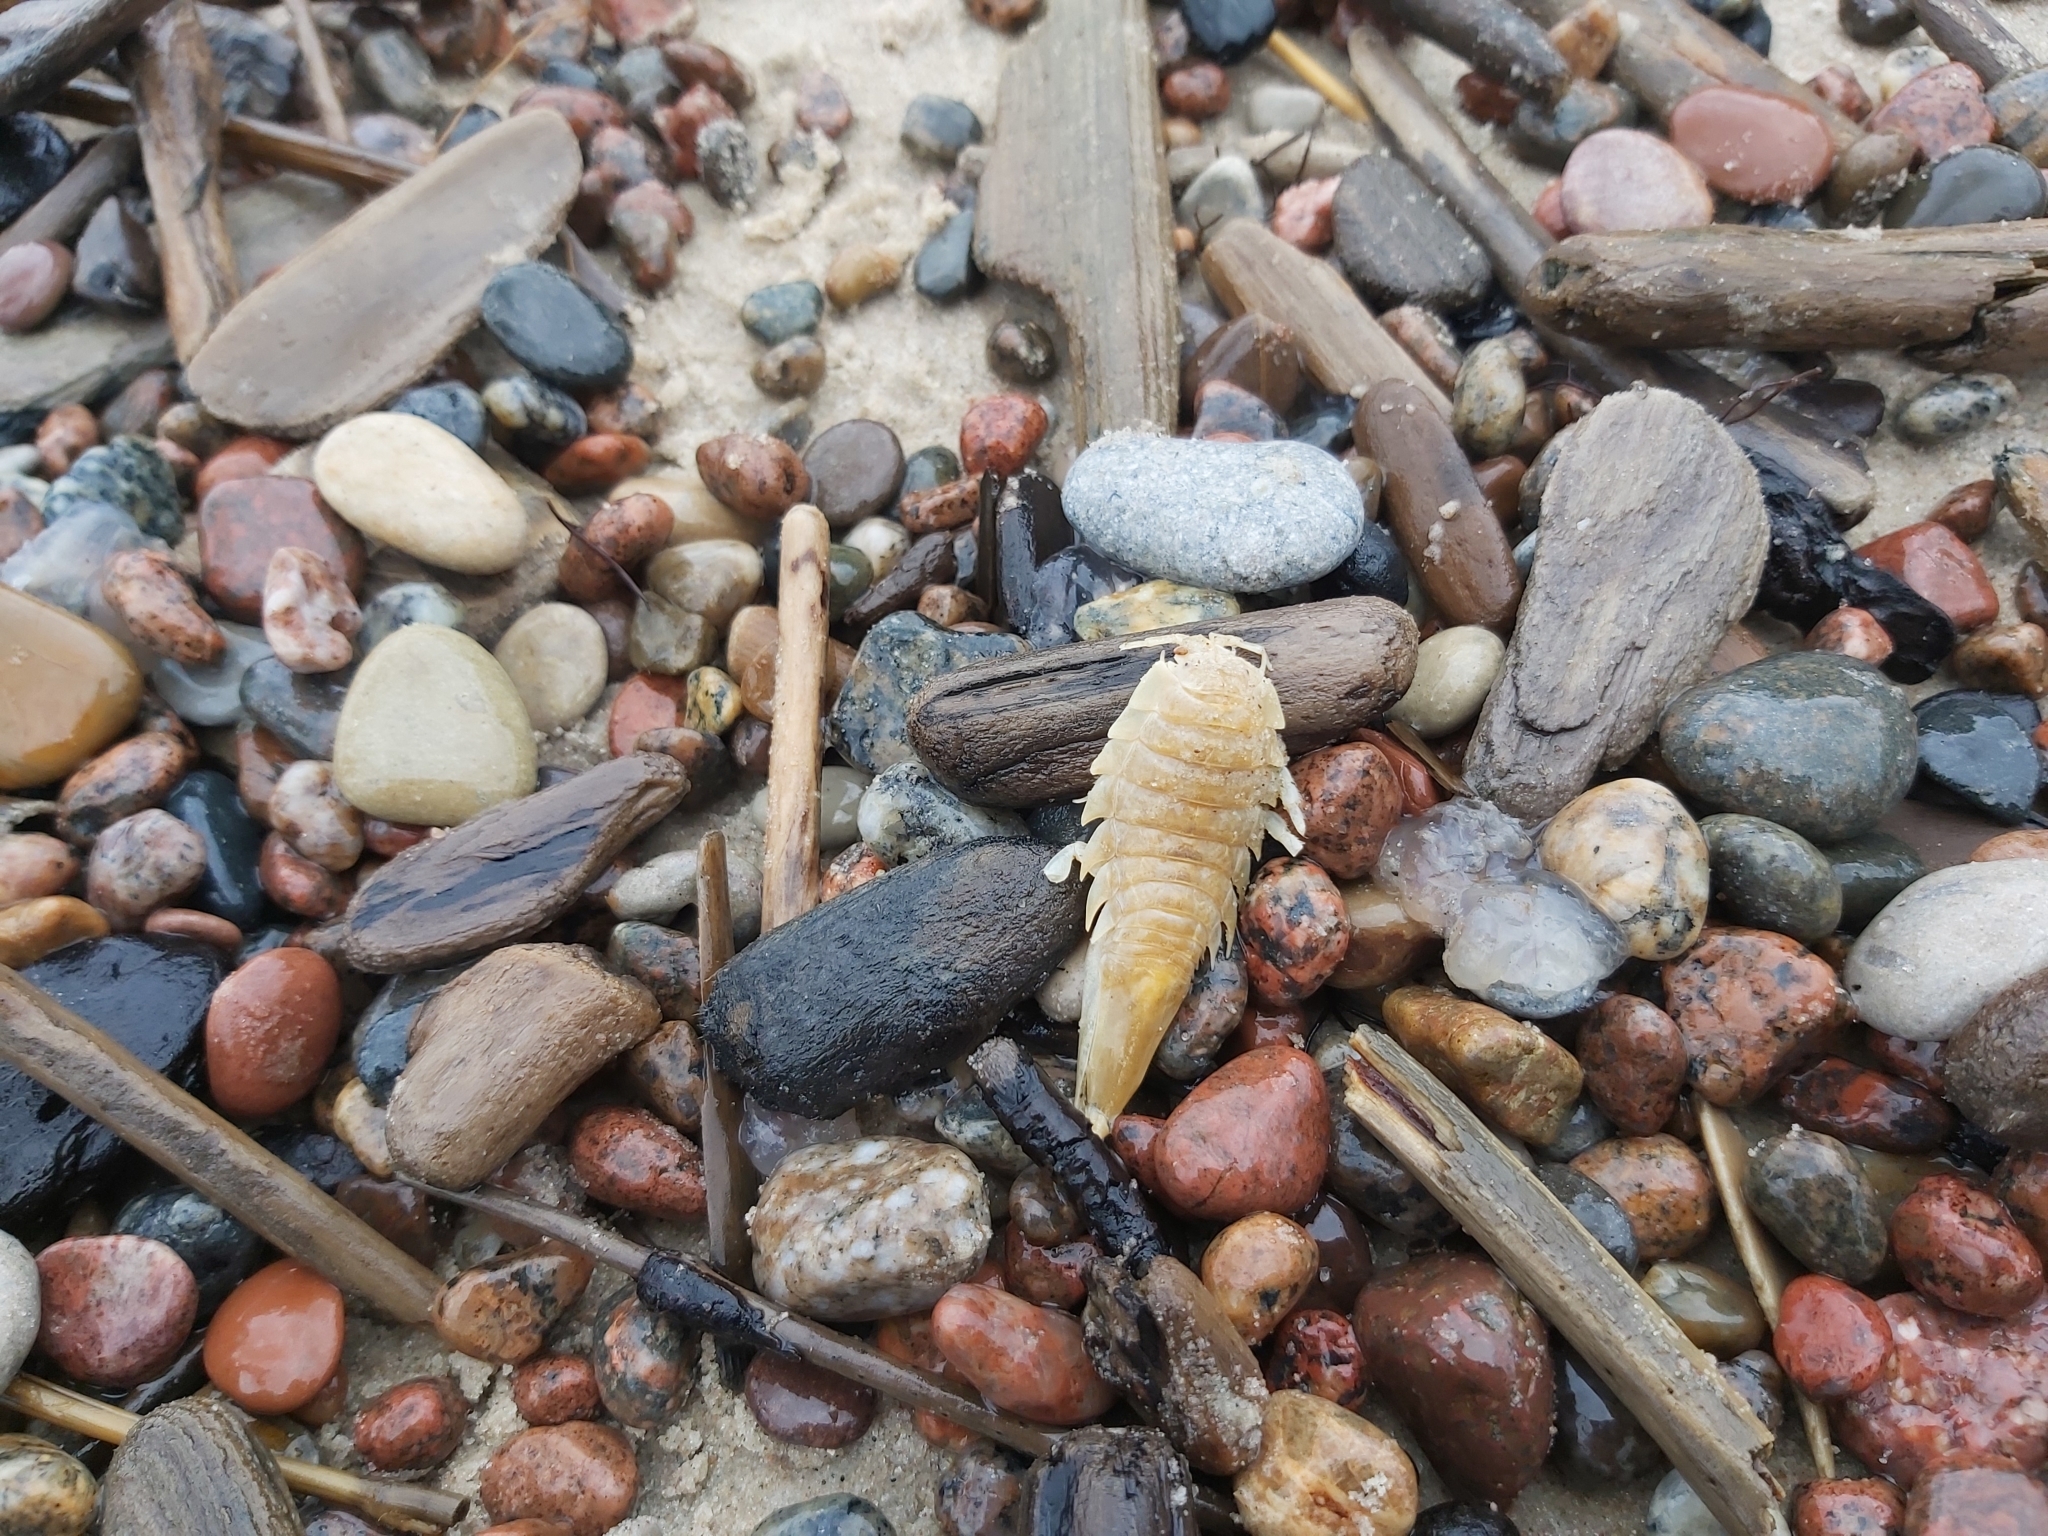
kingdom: Animalia
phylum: Arthropoda
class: Malacostraca
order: Isopoda
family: Chaetiliidae
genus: Saduria
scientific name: Saduria entomon
